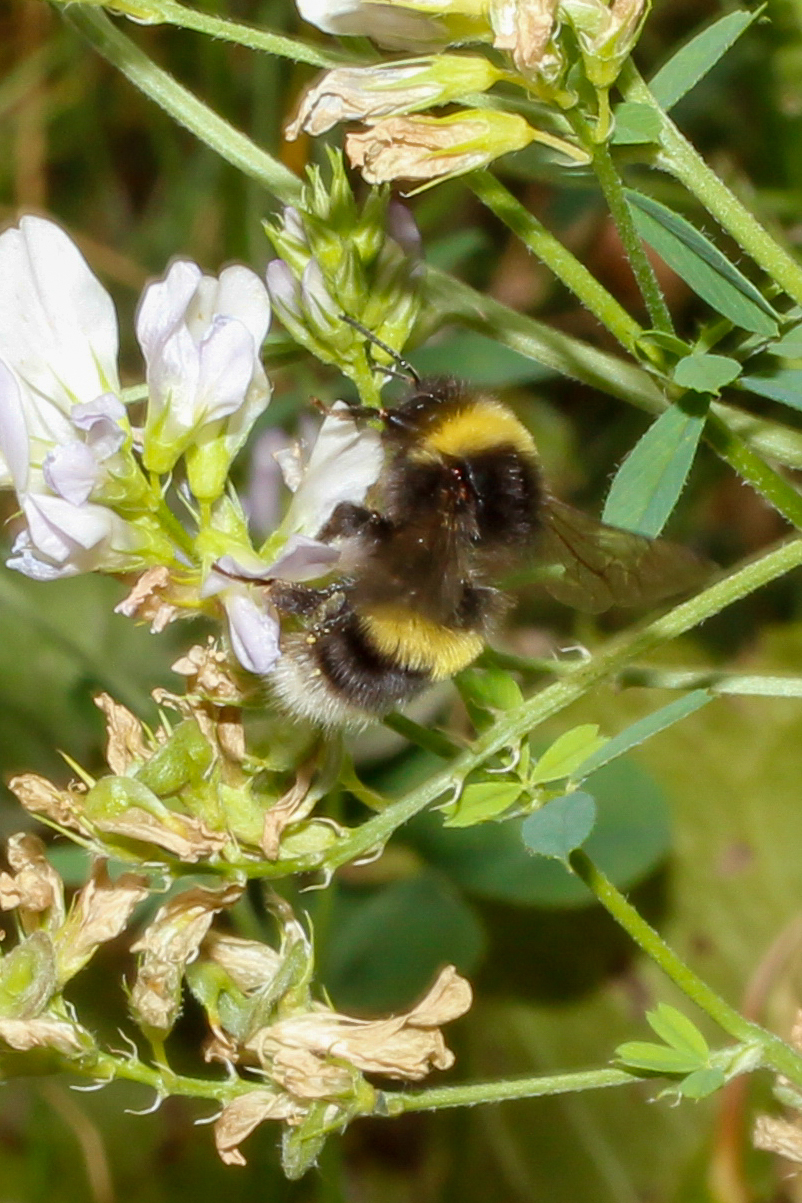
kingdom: Animalia
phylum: Arthropoda
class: Insecta
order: Hymenoptera
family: Apidae
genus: Bombus
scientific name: Bombus cryptarum
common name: Cryptic bumblebee
